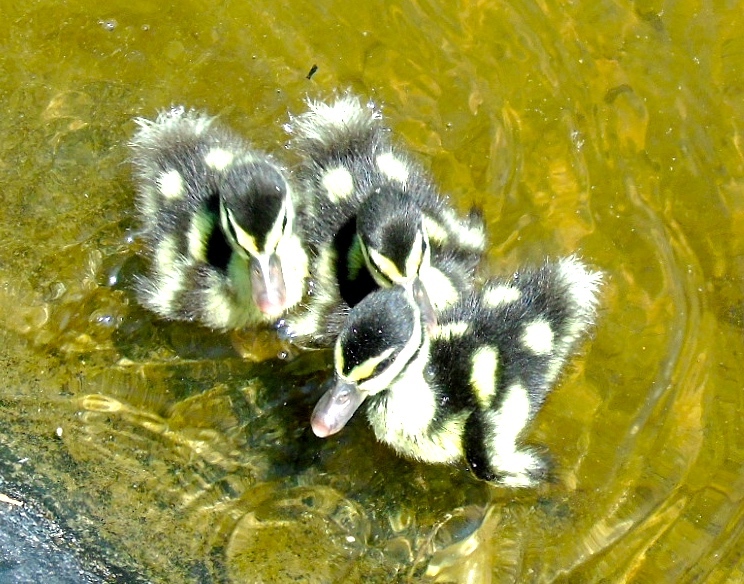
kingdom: Animalia
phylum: Chordata
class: Aves
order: Anseriformes
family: Anatidae
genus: Dendrocygna
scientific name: Dendrocygna autumnalis
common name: Black-bellied whistling duck
